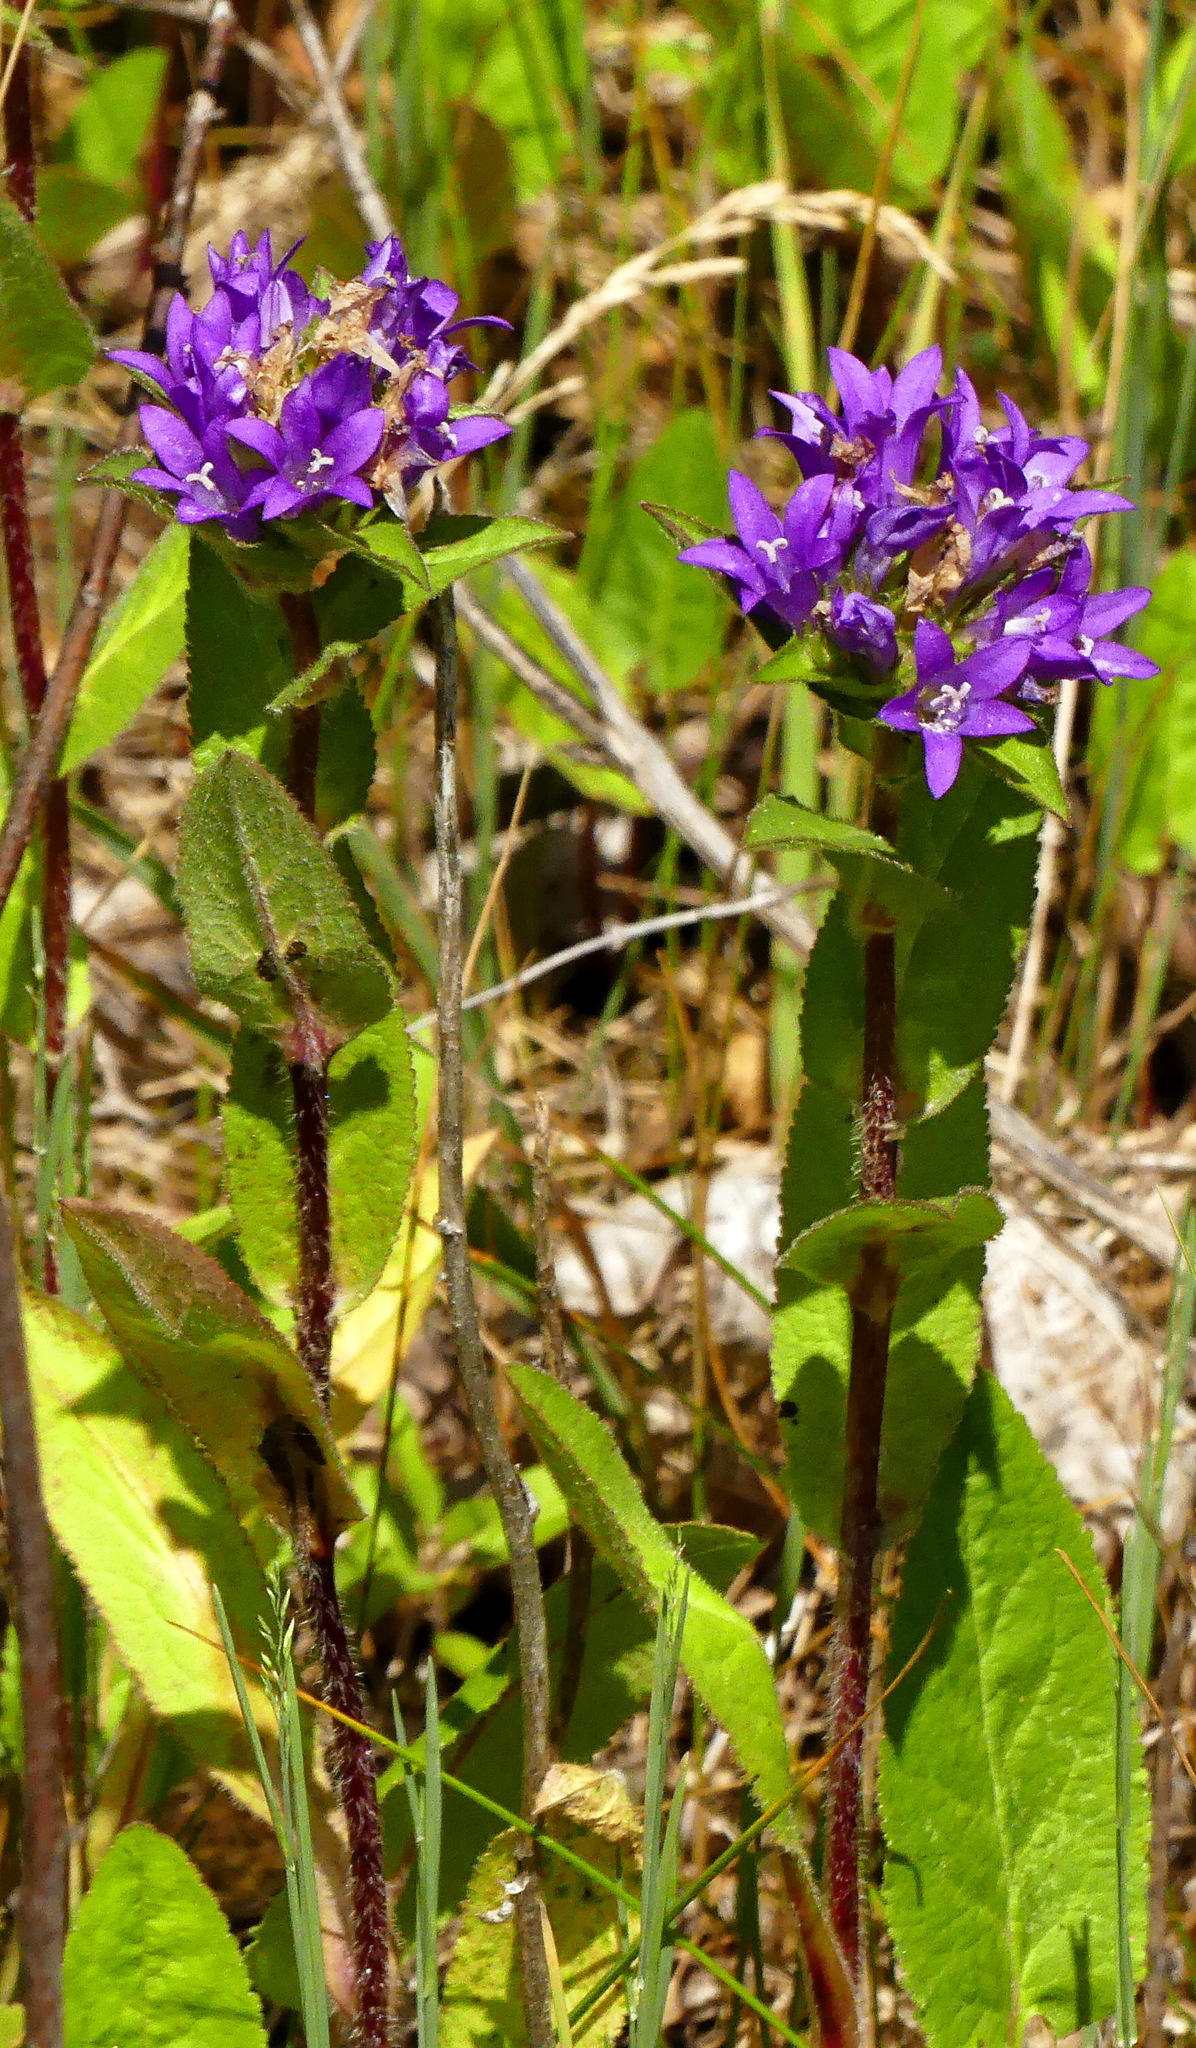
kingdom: Plantae
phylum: Tracheophyta
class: Magnoliopsida
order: Asterales
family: Campanulaceae
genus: Campanula
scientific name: Campanula glomerata
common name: Clustered bellflower
